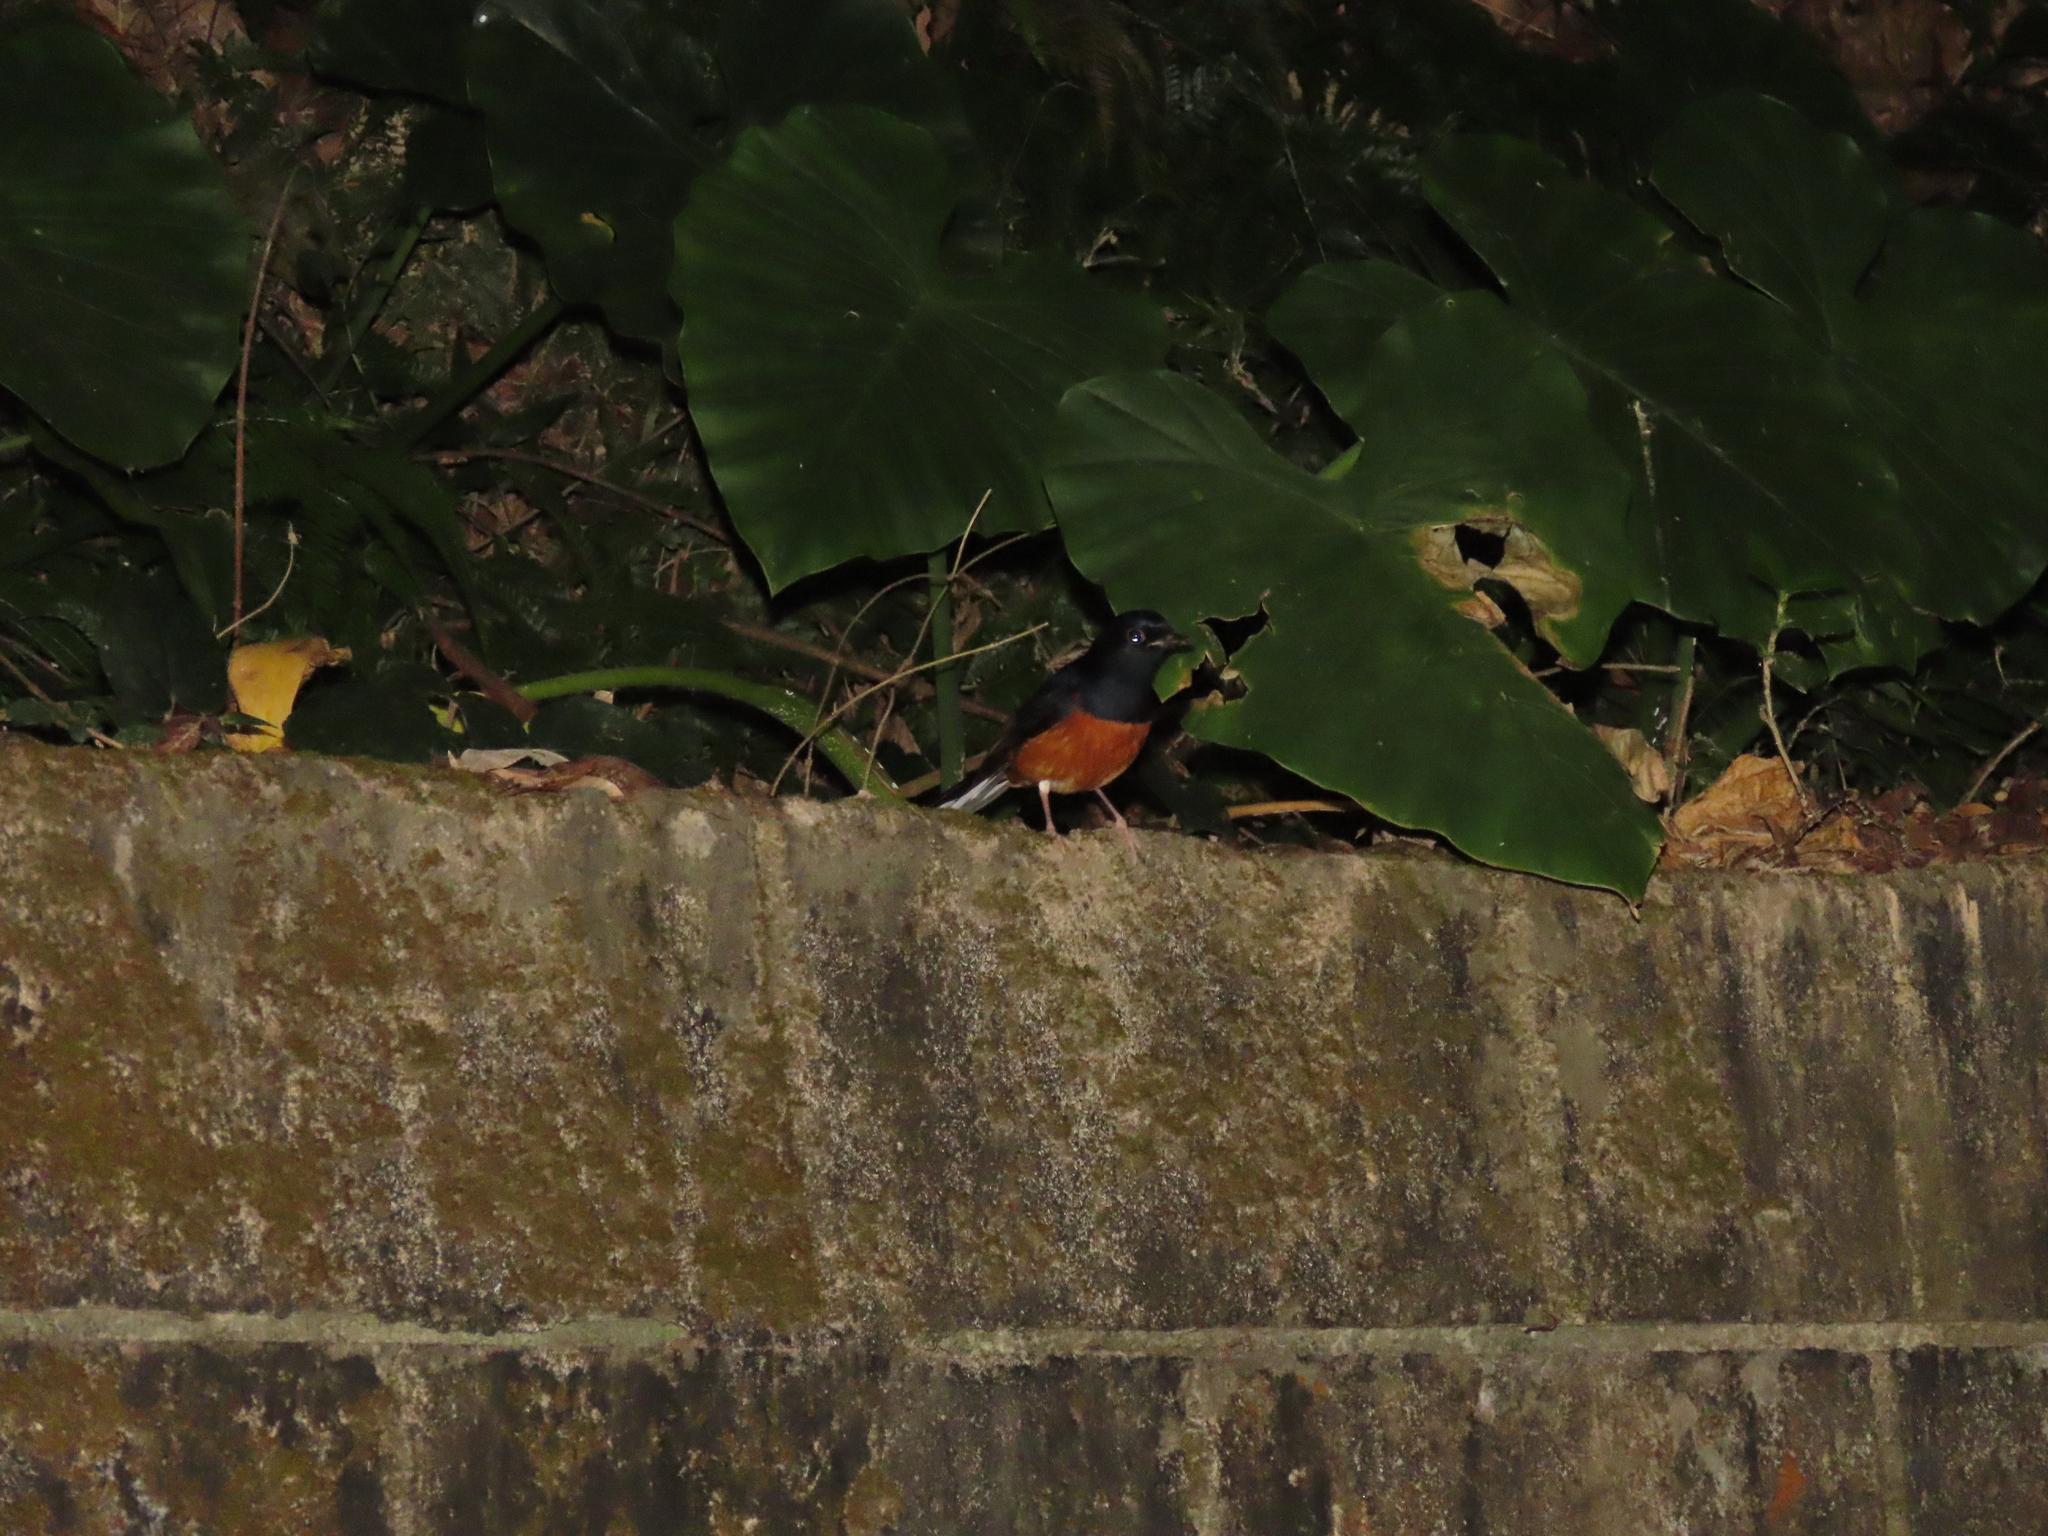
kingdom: Animalia
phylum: Chordata
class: Aves
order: Passeriformes
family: Muscicapidae
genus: Copsychus
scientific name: Copsychus malabaricus
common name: White-rumped shama
